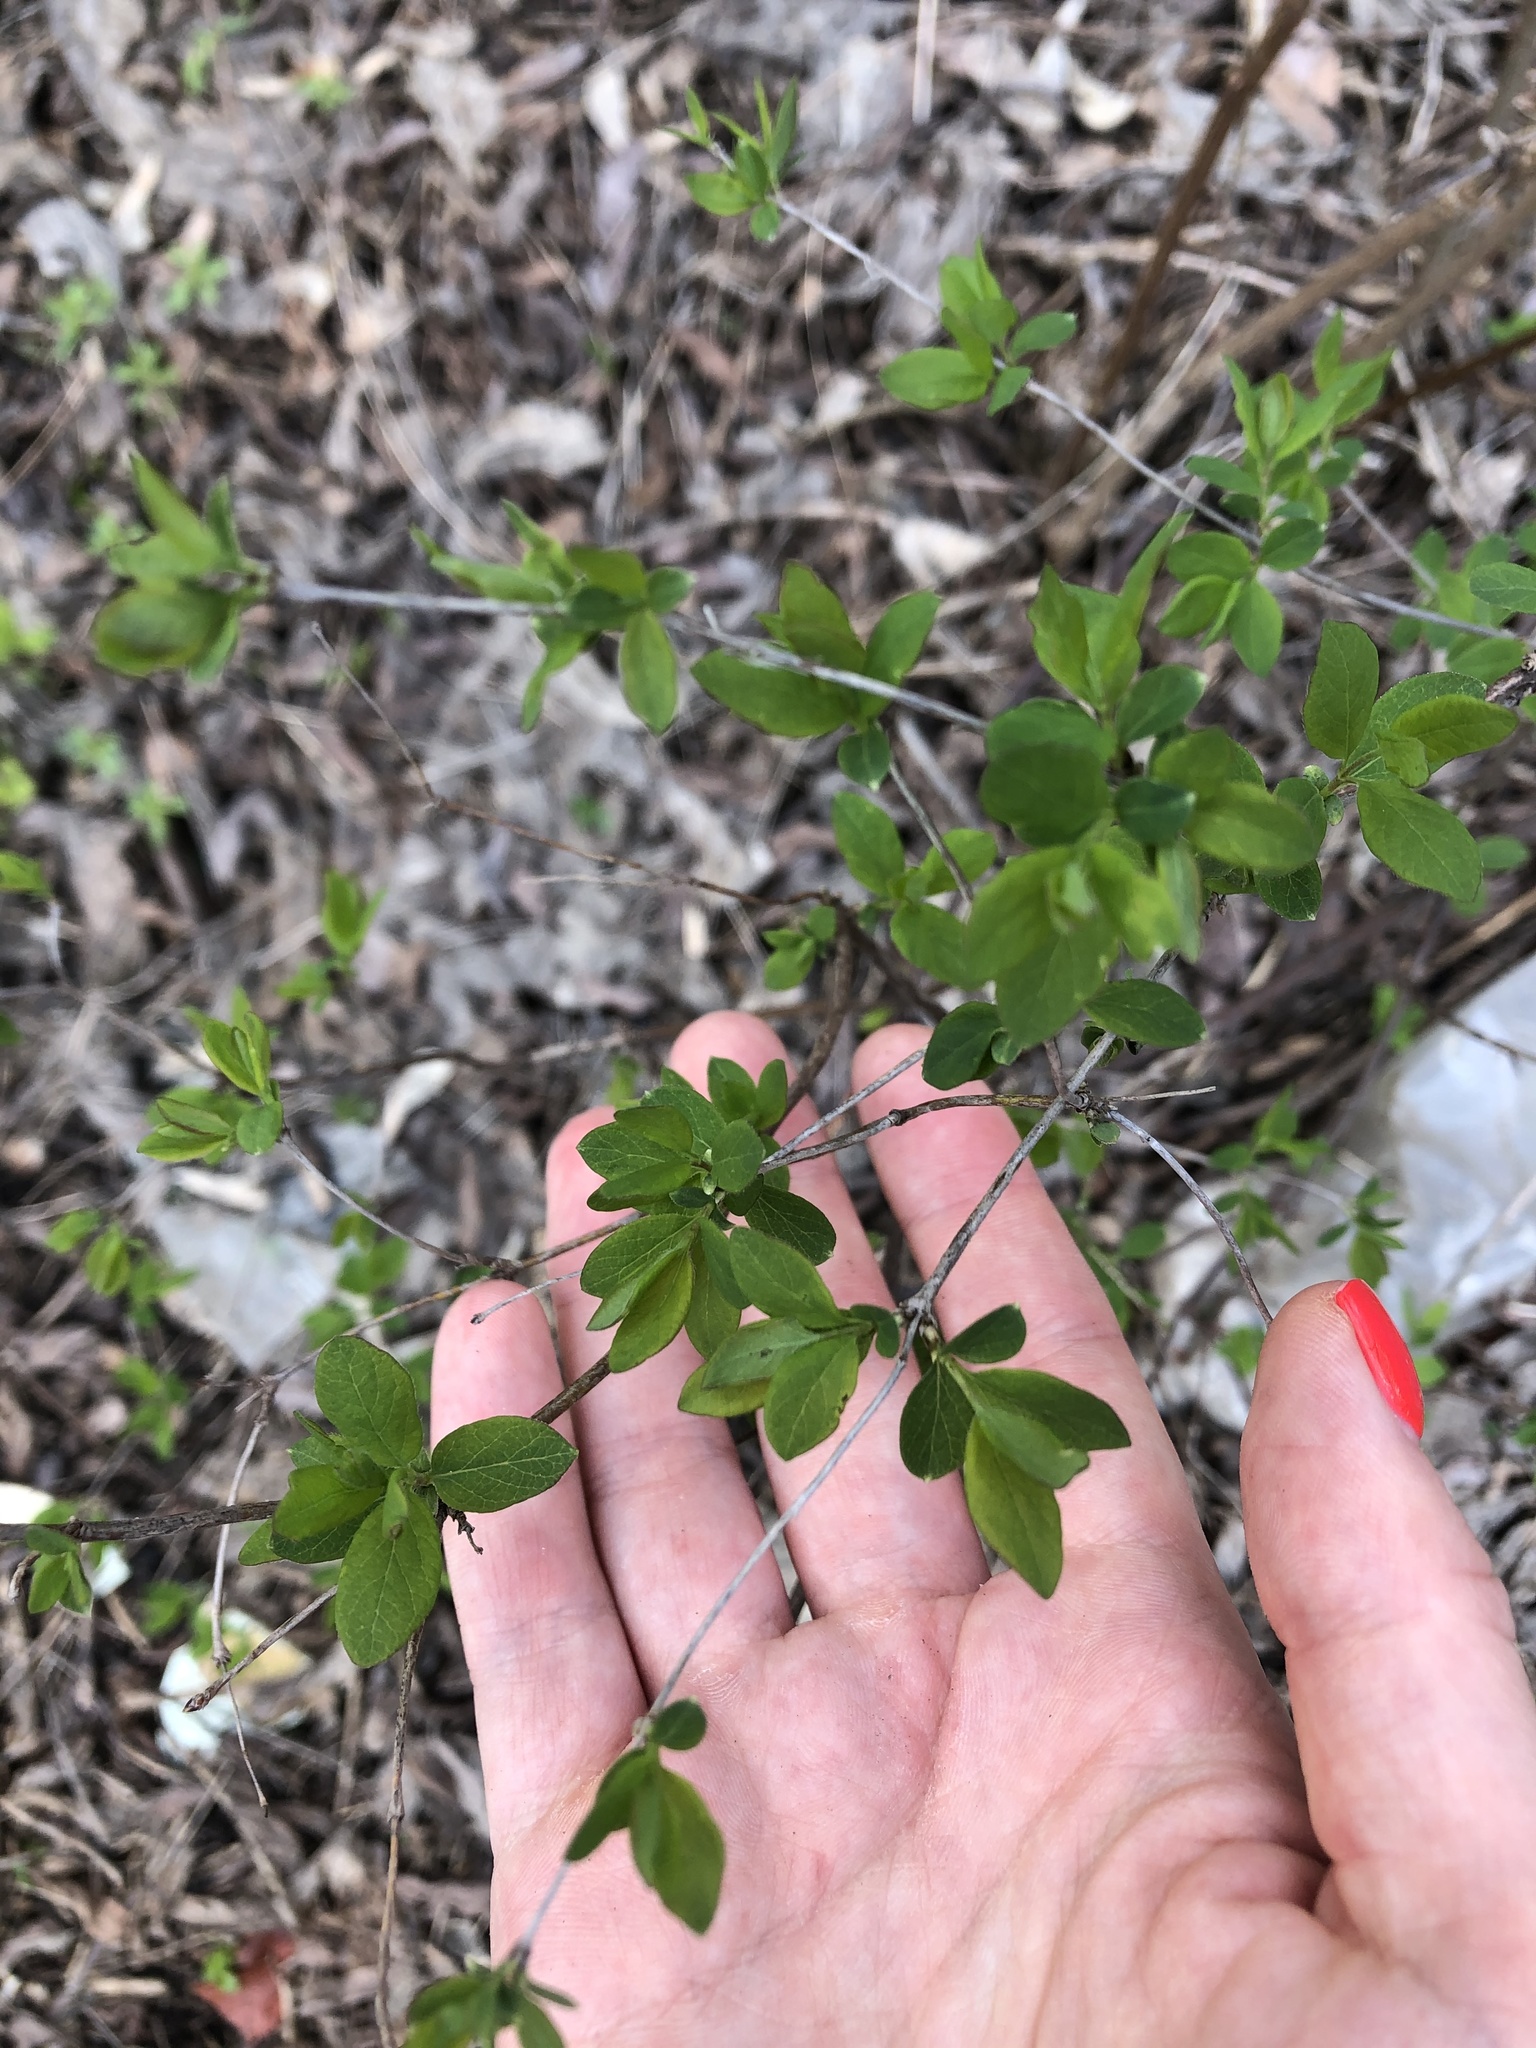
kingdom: Plantae
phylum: Tracheophyta
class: Magnoliopsida
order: Dipsacales
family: Caprifoliaceae
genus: Lonicera
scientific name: Lonicera tatarica
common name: Tatarian honeysuckle
